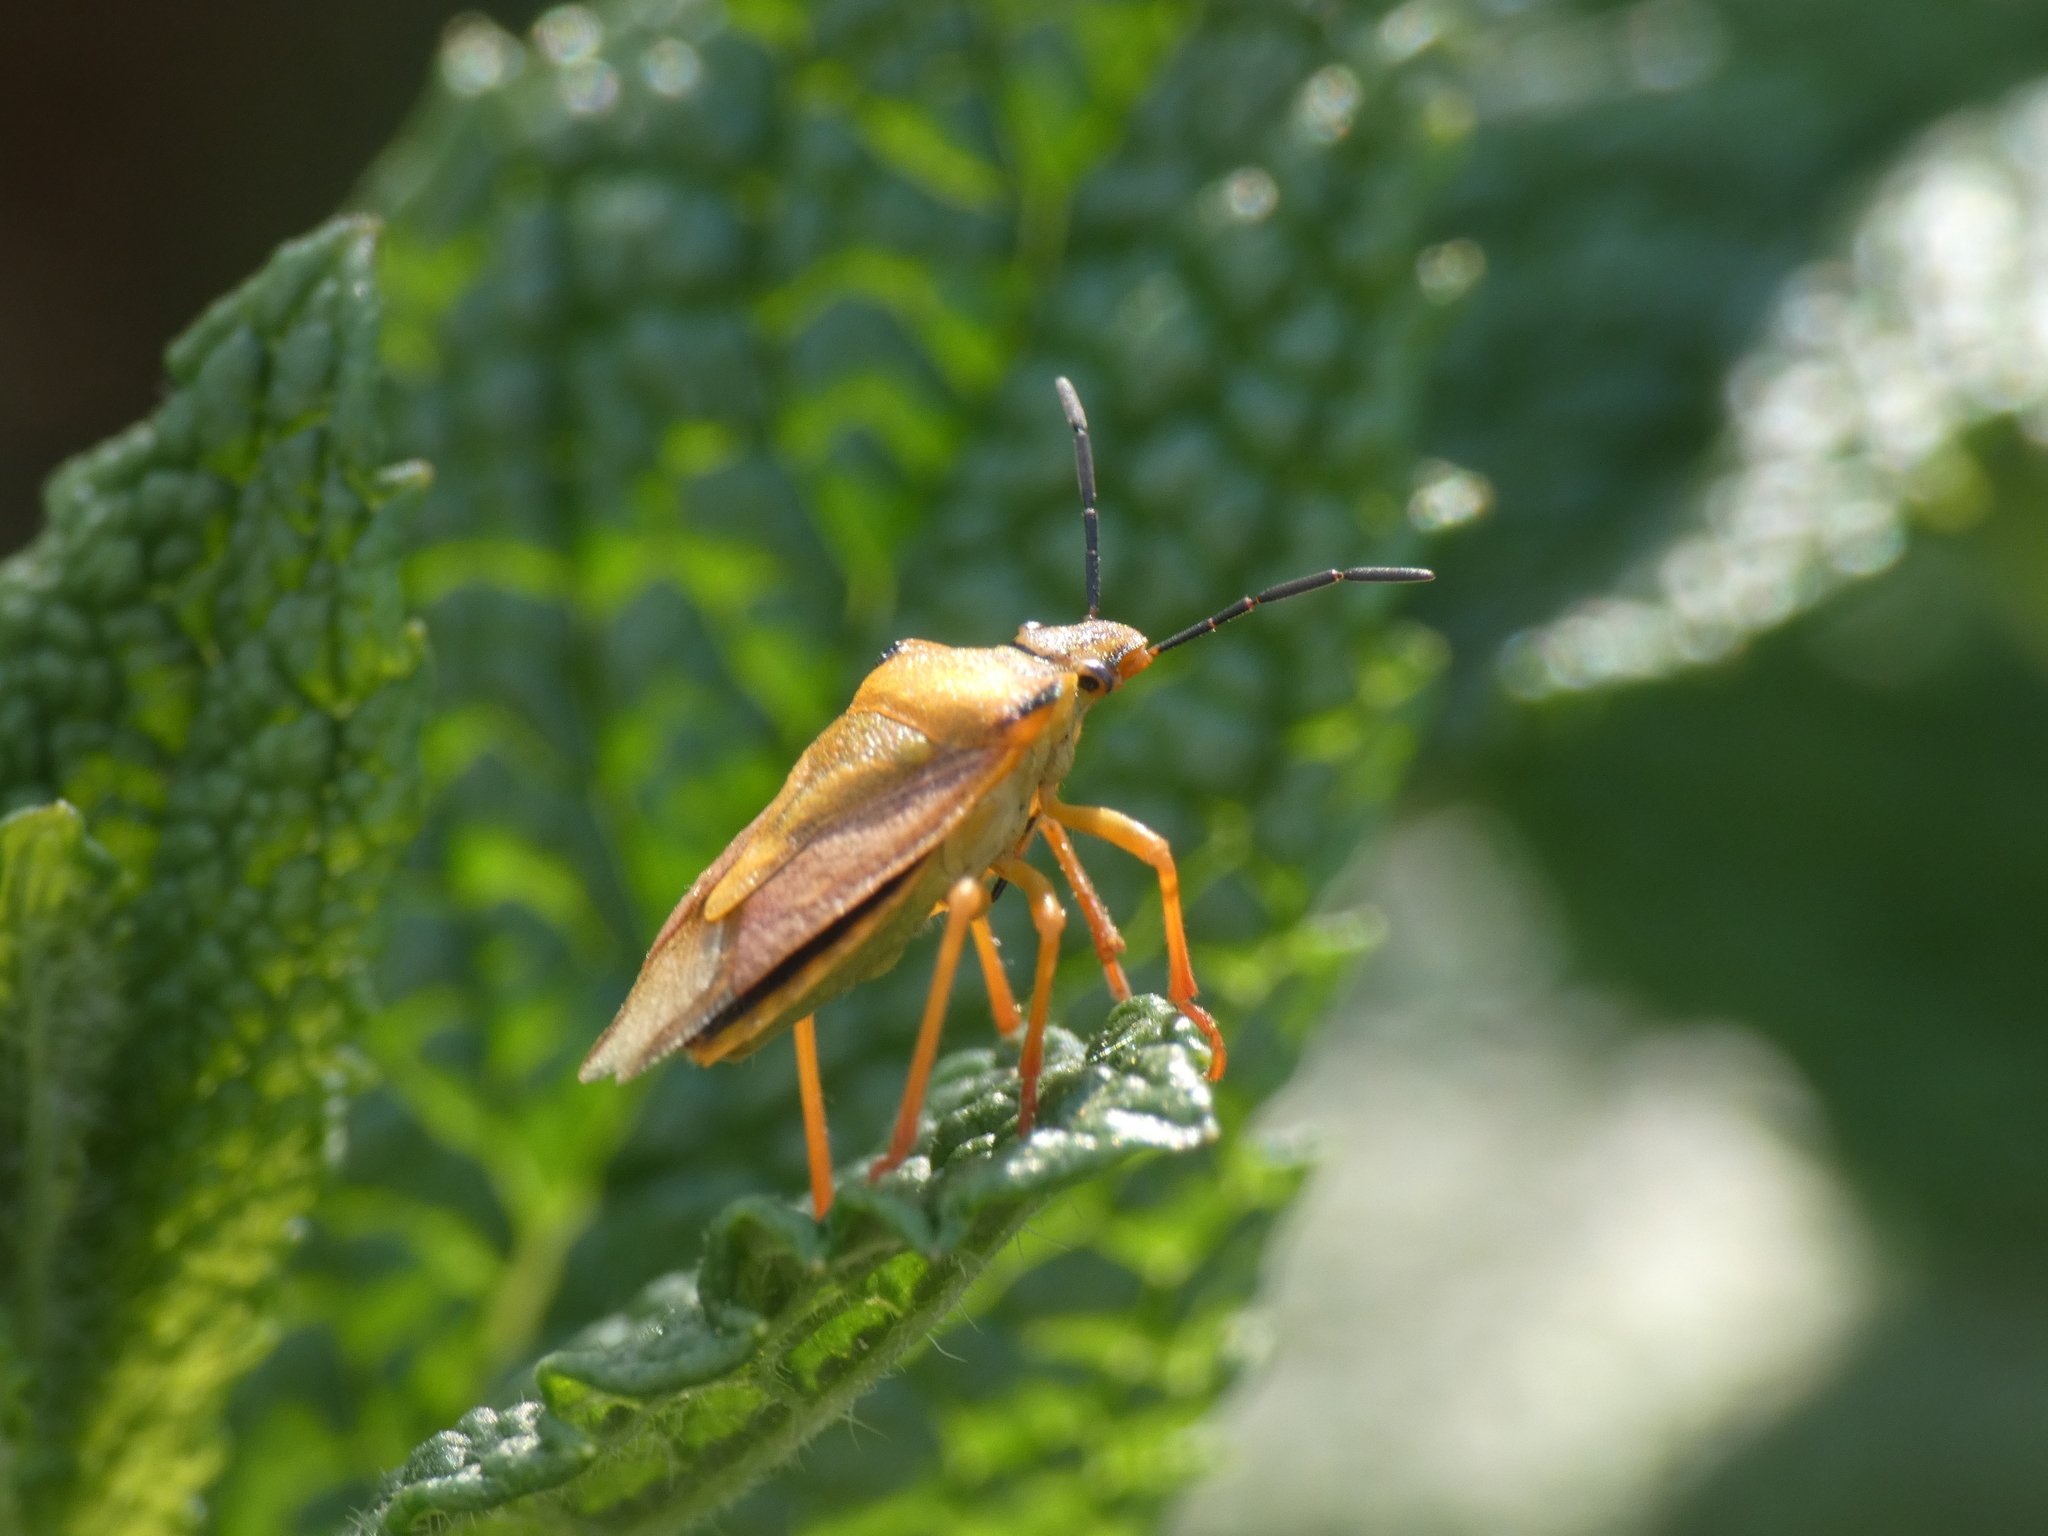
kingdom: Animalia
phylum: Arthropoda
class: Insecta
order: Hemiptera
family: Pentatomidae
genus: Carpocoris
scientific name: Carpocoris mediterraneus
